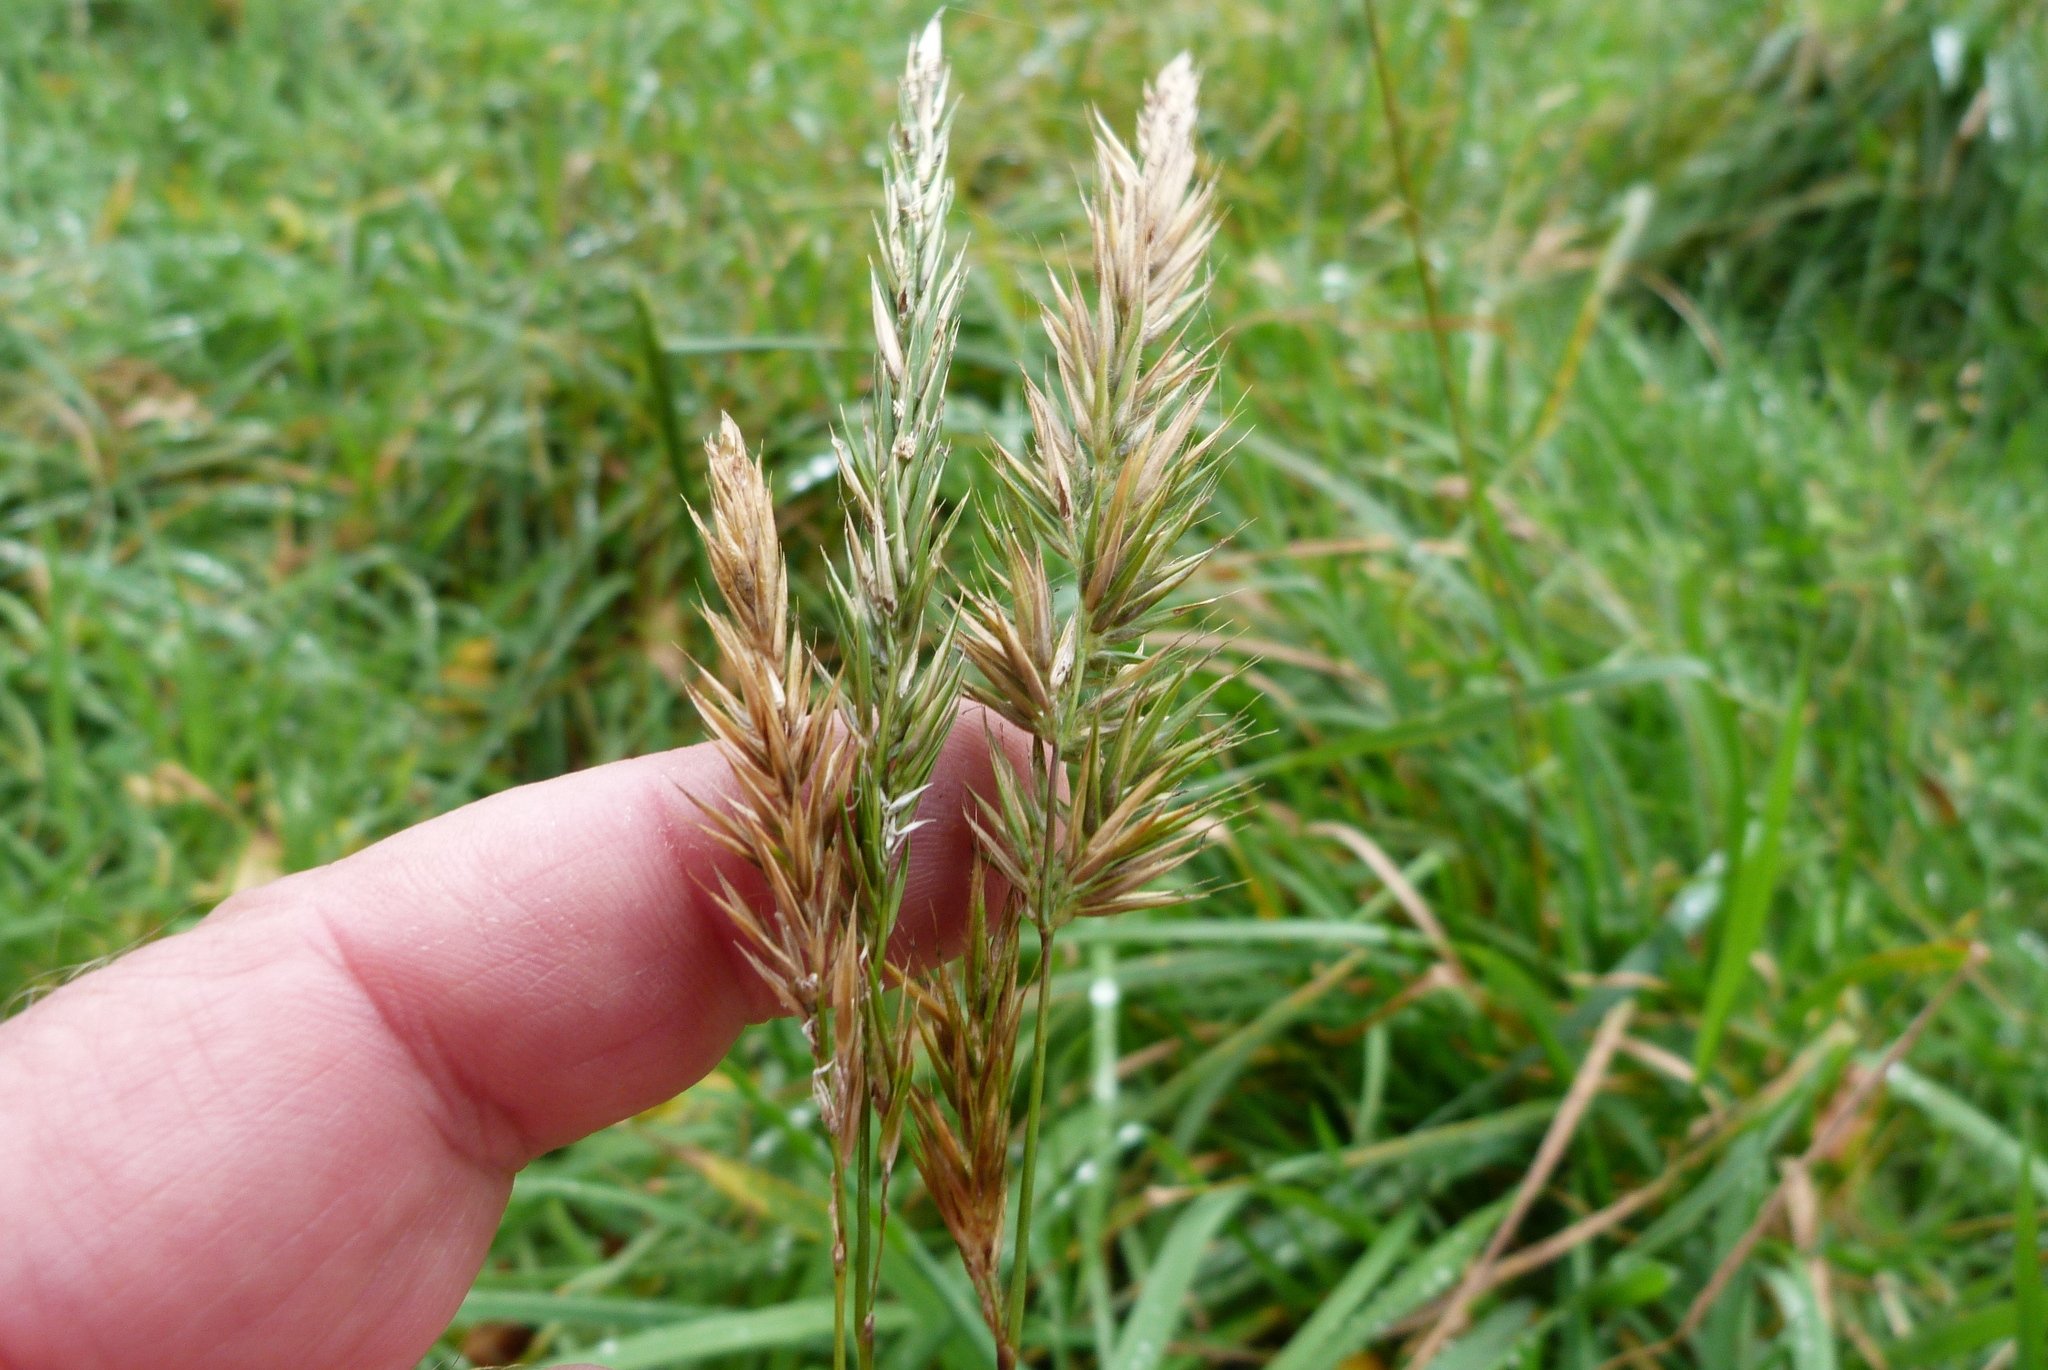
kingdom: Plantae
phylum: Tracheophyta
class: Liliopsida
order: Poales
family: Poaceae
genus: Anthoxanthum
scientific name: Anthoxanthum odoratum
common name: Sweet vernalgrass
